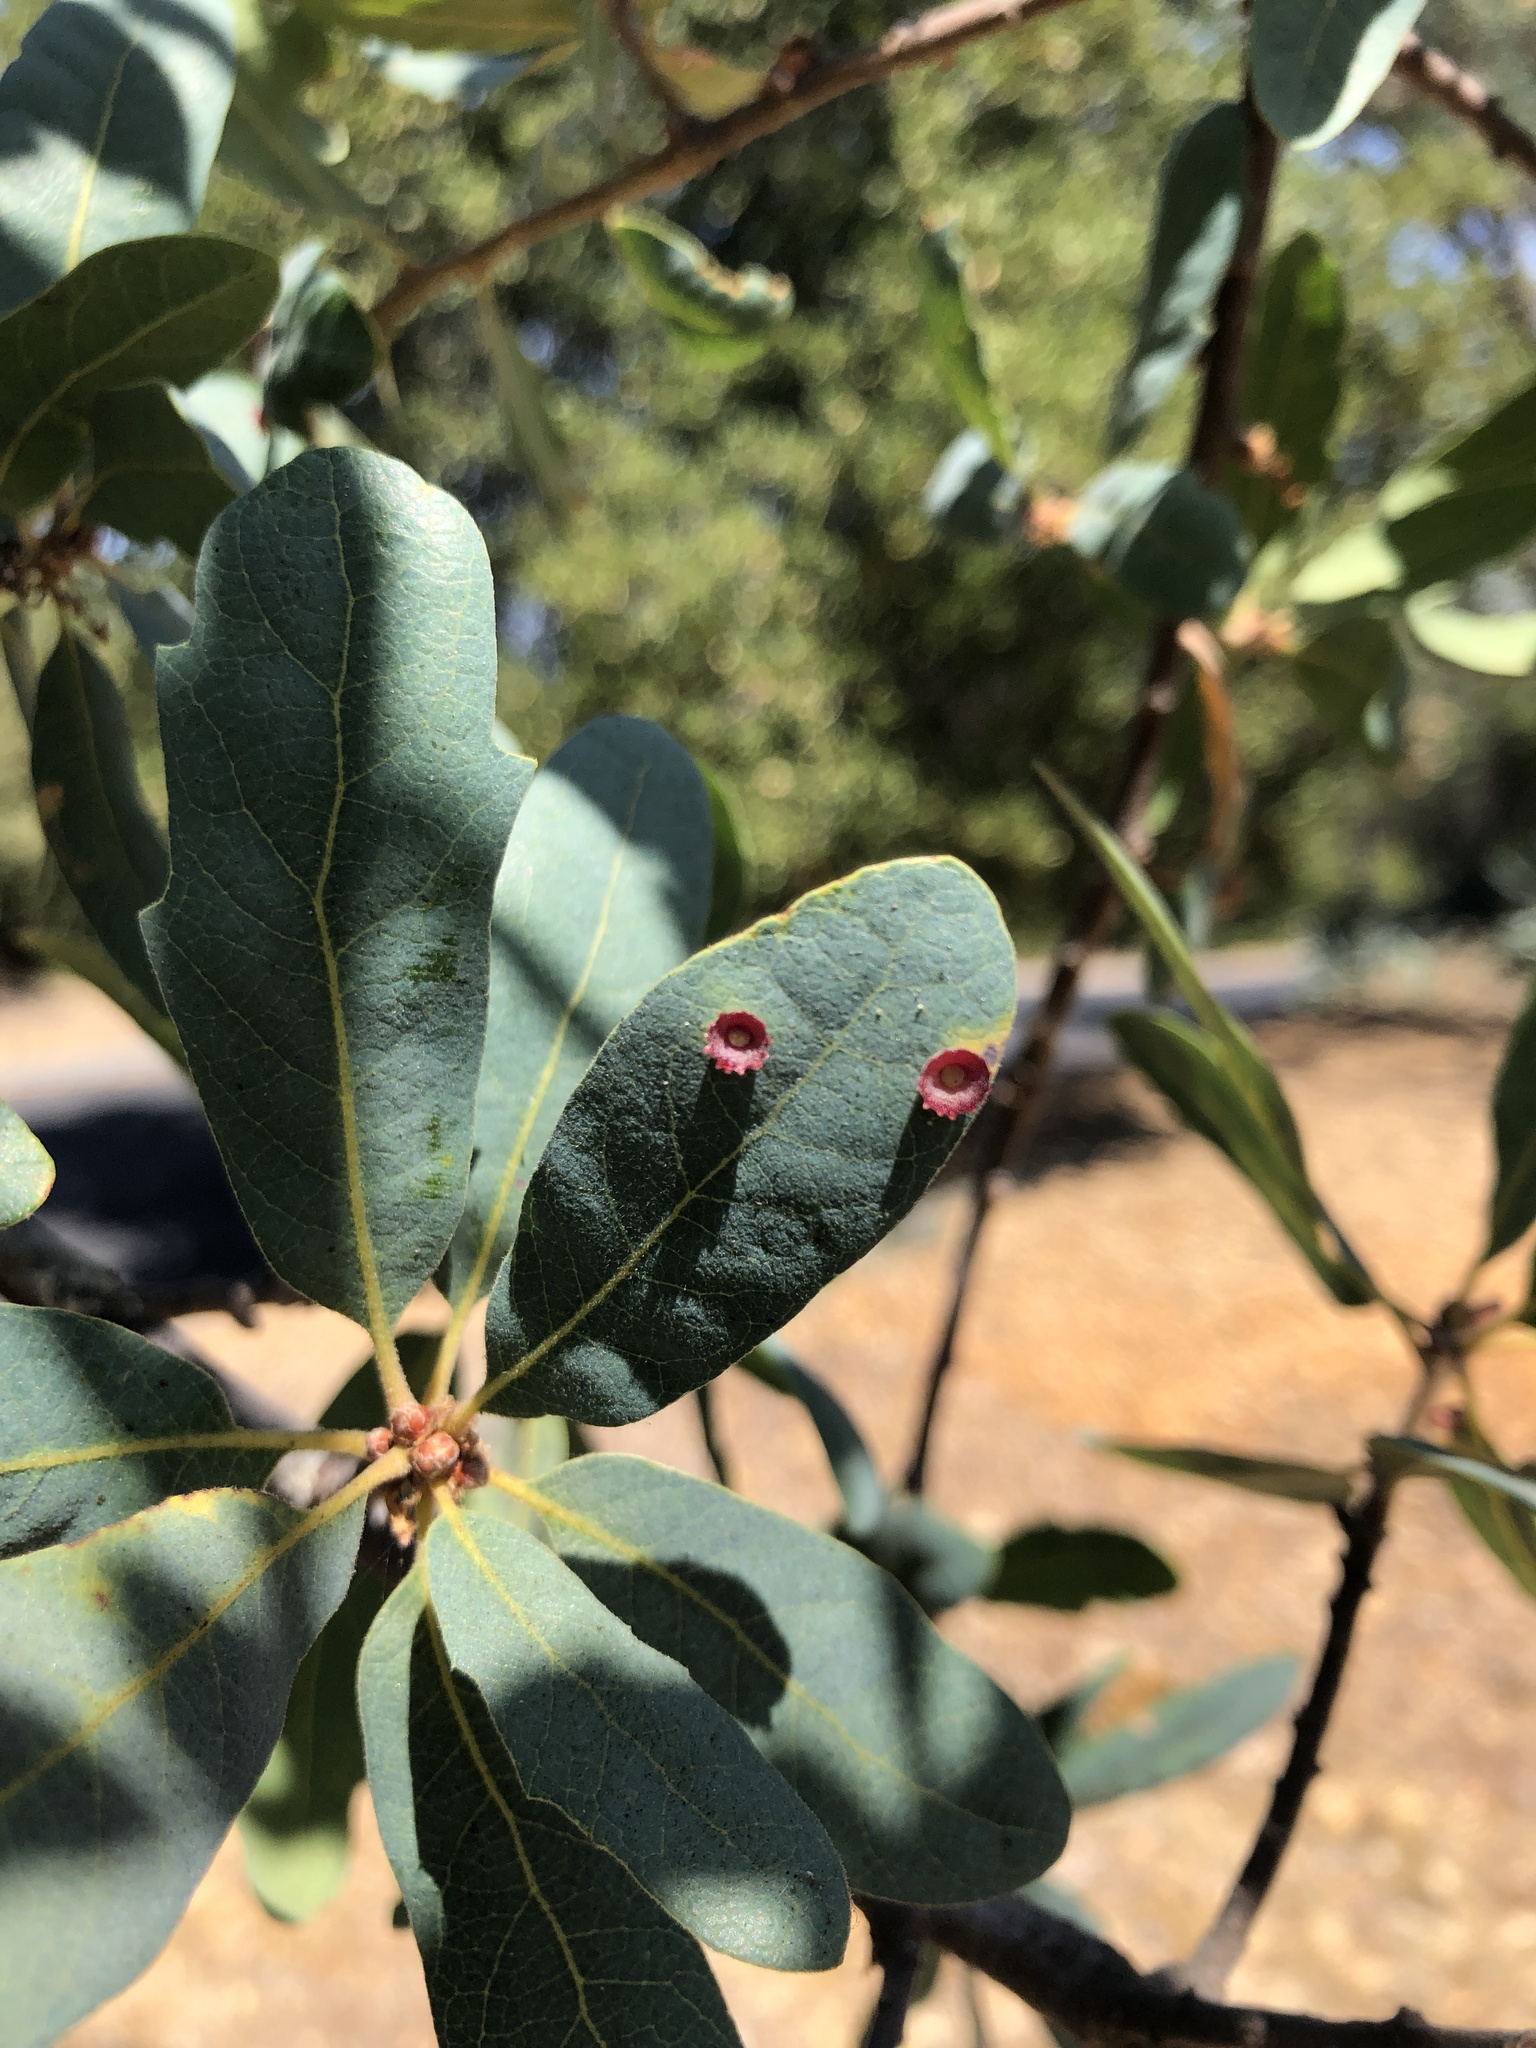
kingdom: Animalia
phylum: Arthropoda
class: Insecta
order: Hymenoptera
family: Cynipidae
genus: Andricus
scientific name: Andricus
